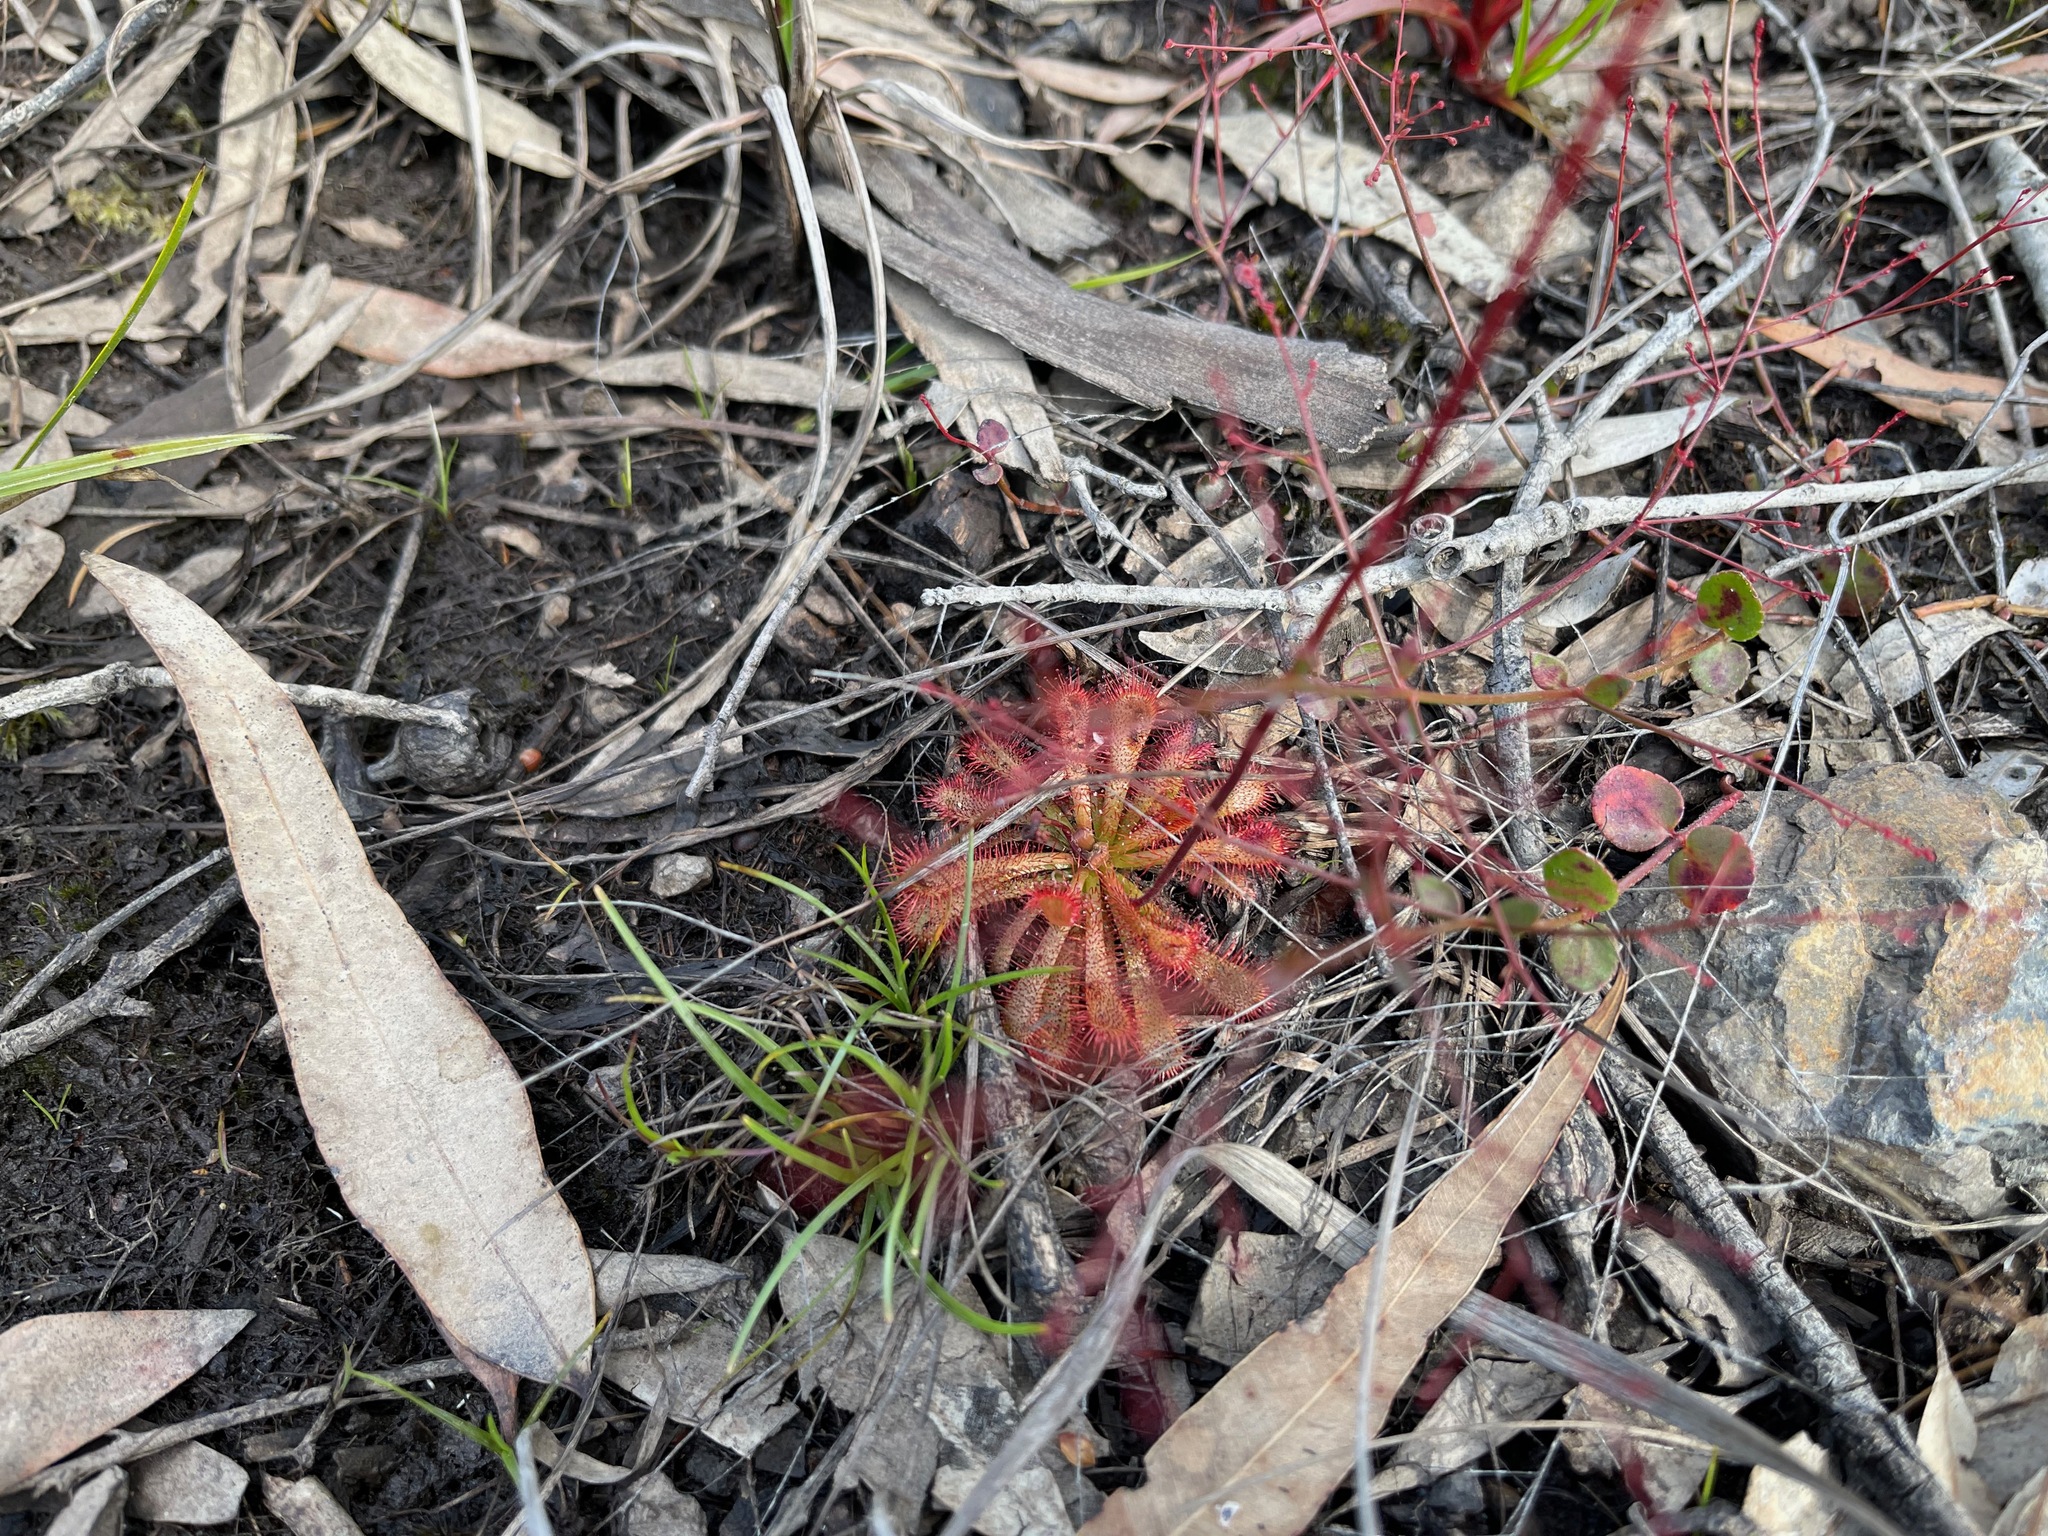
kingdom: Plantae
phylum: Tracheophyta
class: Magnoliopsida
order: Caryophyllales
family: Droseraceae
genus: Drosera
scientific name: Drosera spatulata
